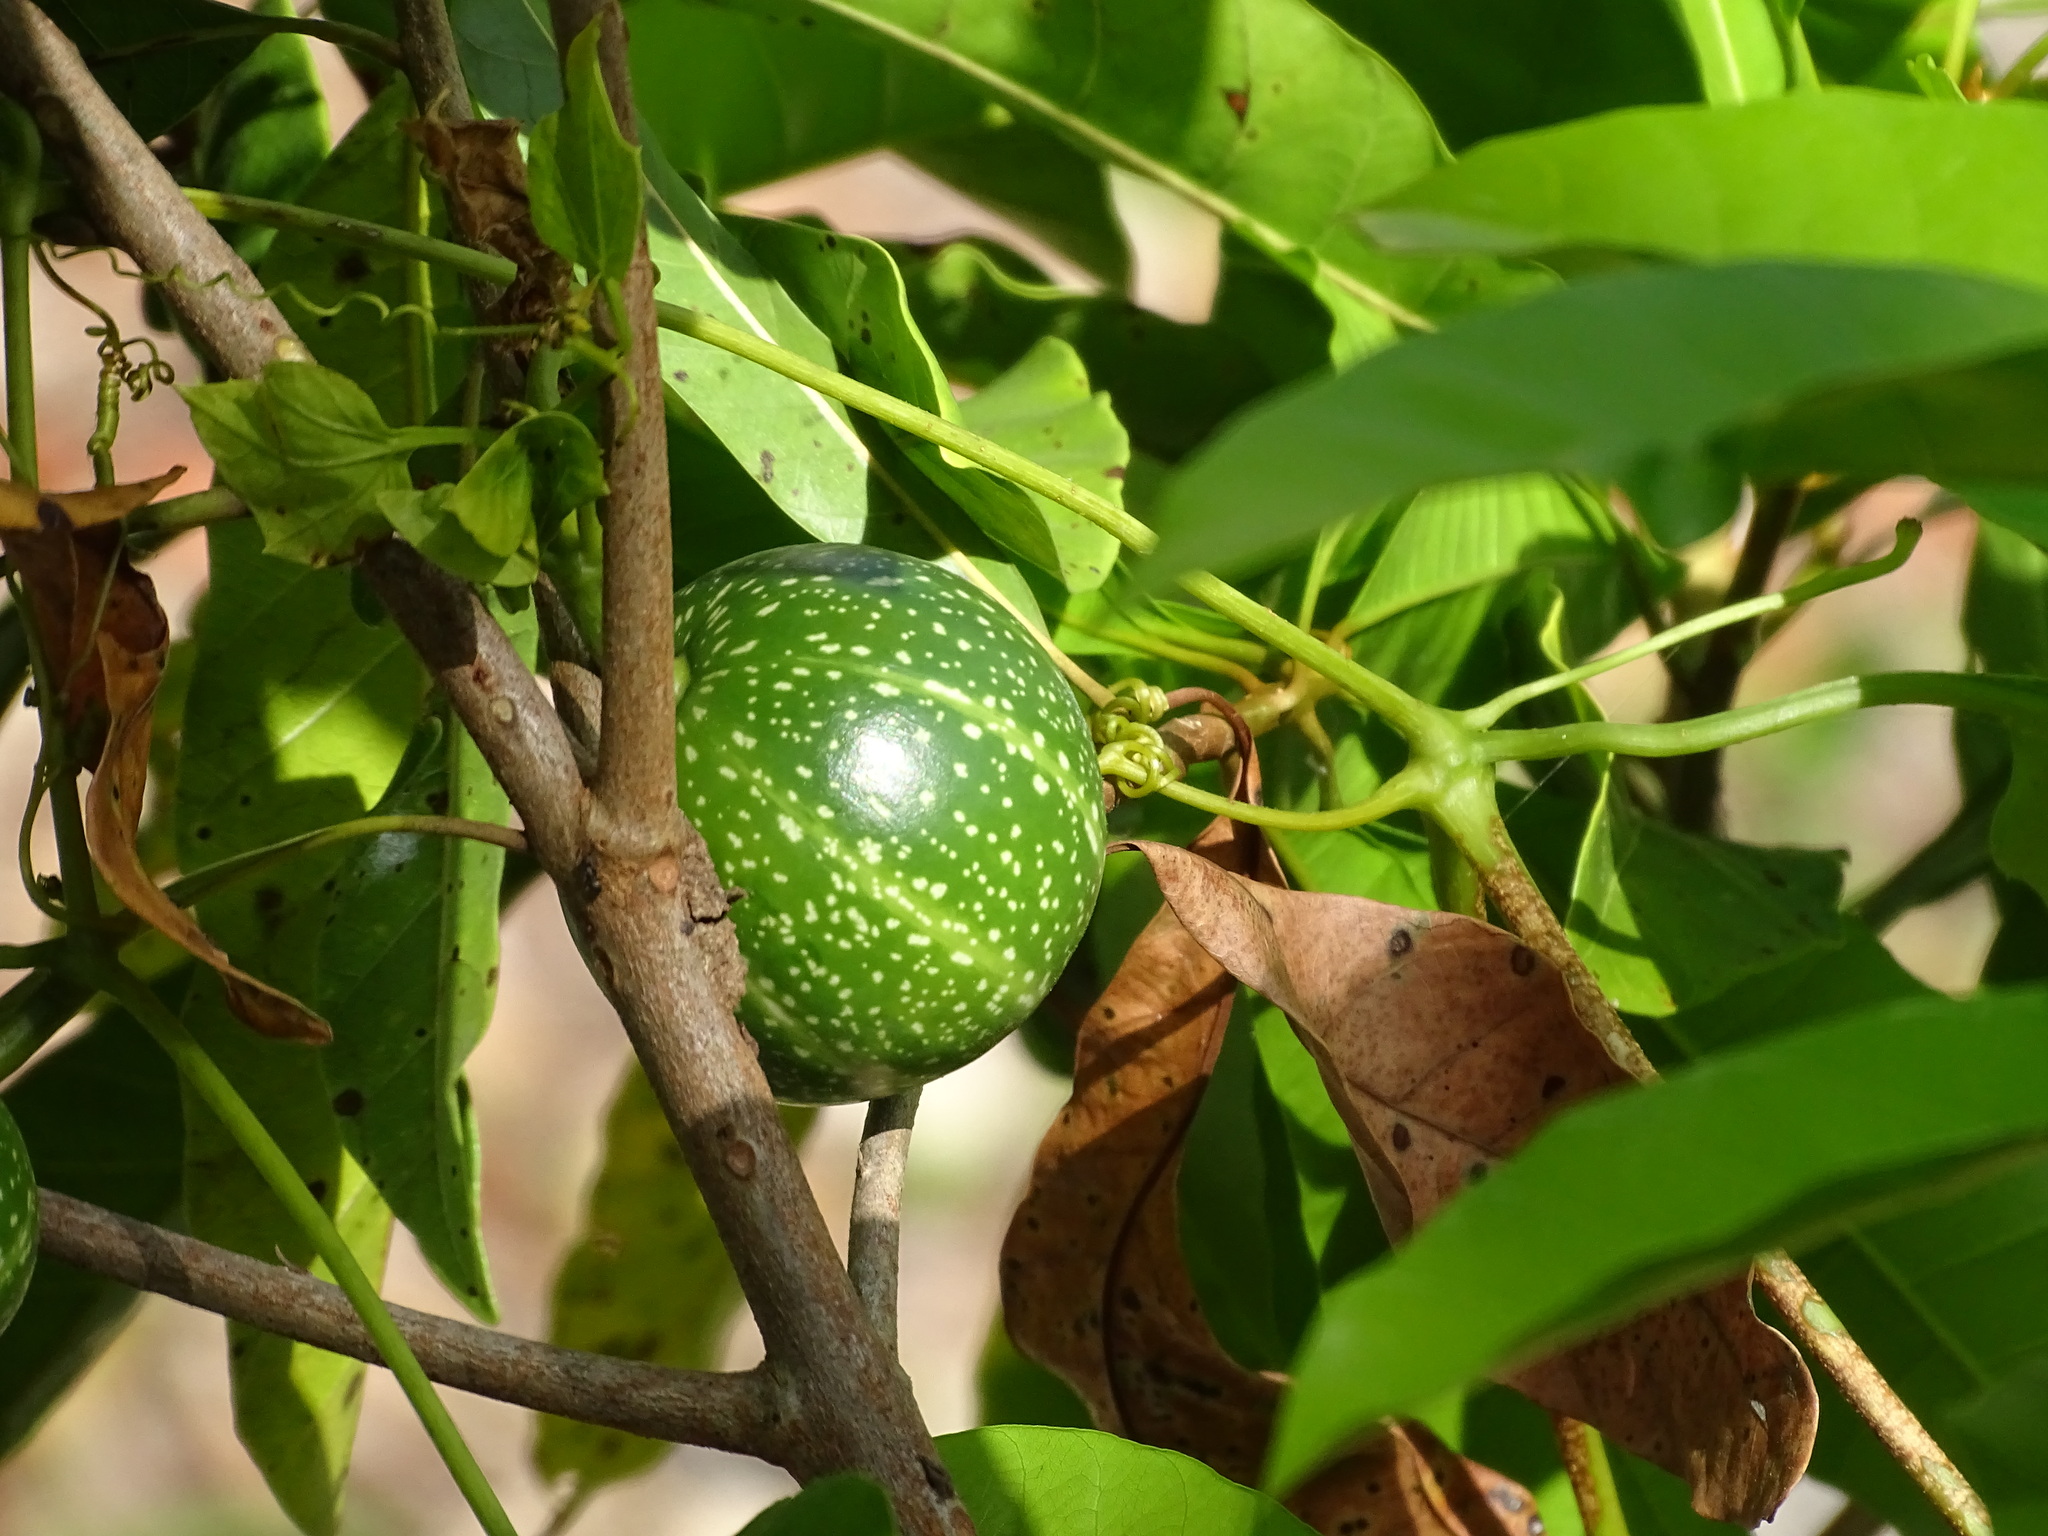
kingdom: Plantae
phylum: Tracheophyta
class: Magnoliopsida
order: Cucurbitales
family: Cucurbitaceae
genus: Cionosicys
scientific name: Cionosicys excisus
